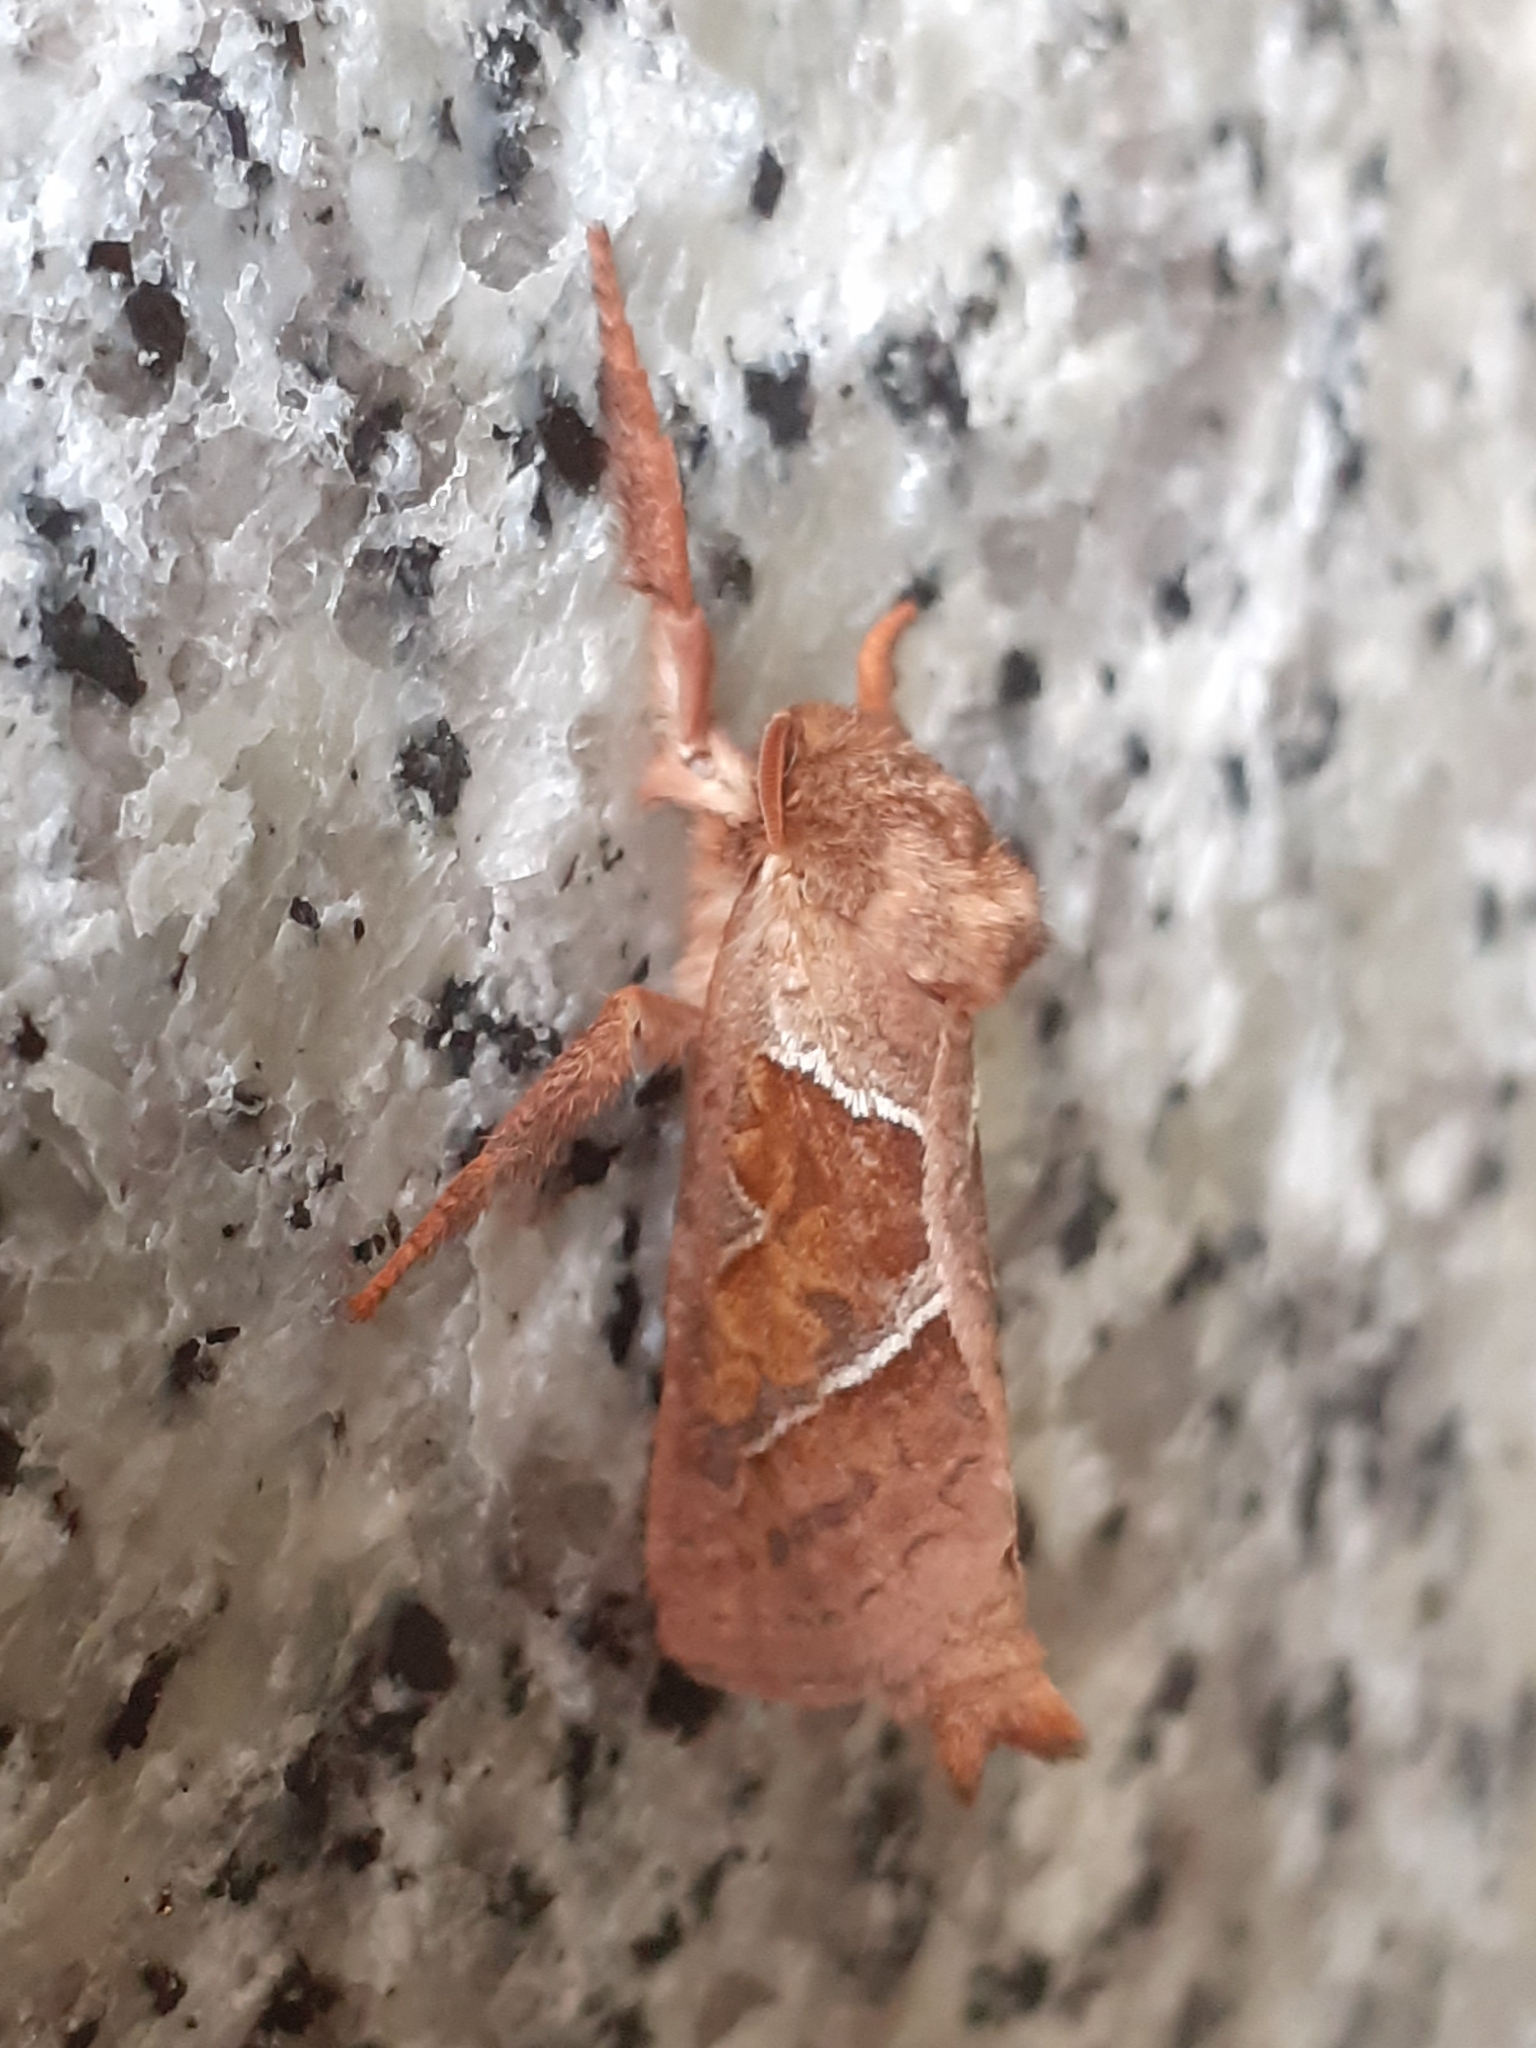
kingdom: Animalia
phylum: Arthropoda
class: Insecta
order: Lepidoptera
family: Hepialidae
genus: Triodia
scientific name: Triodia sylvina
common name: Orange swift
